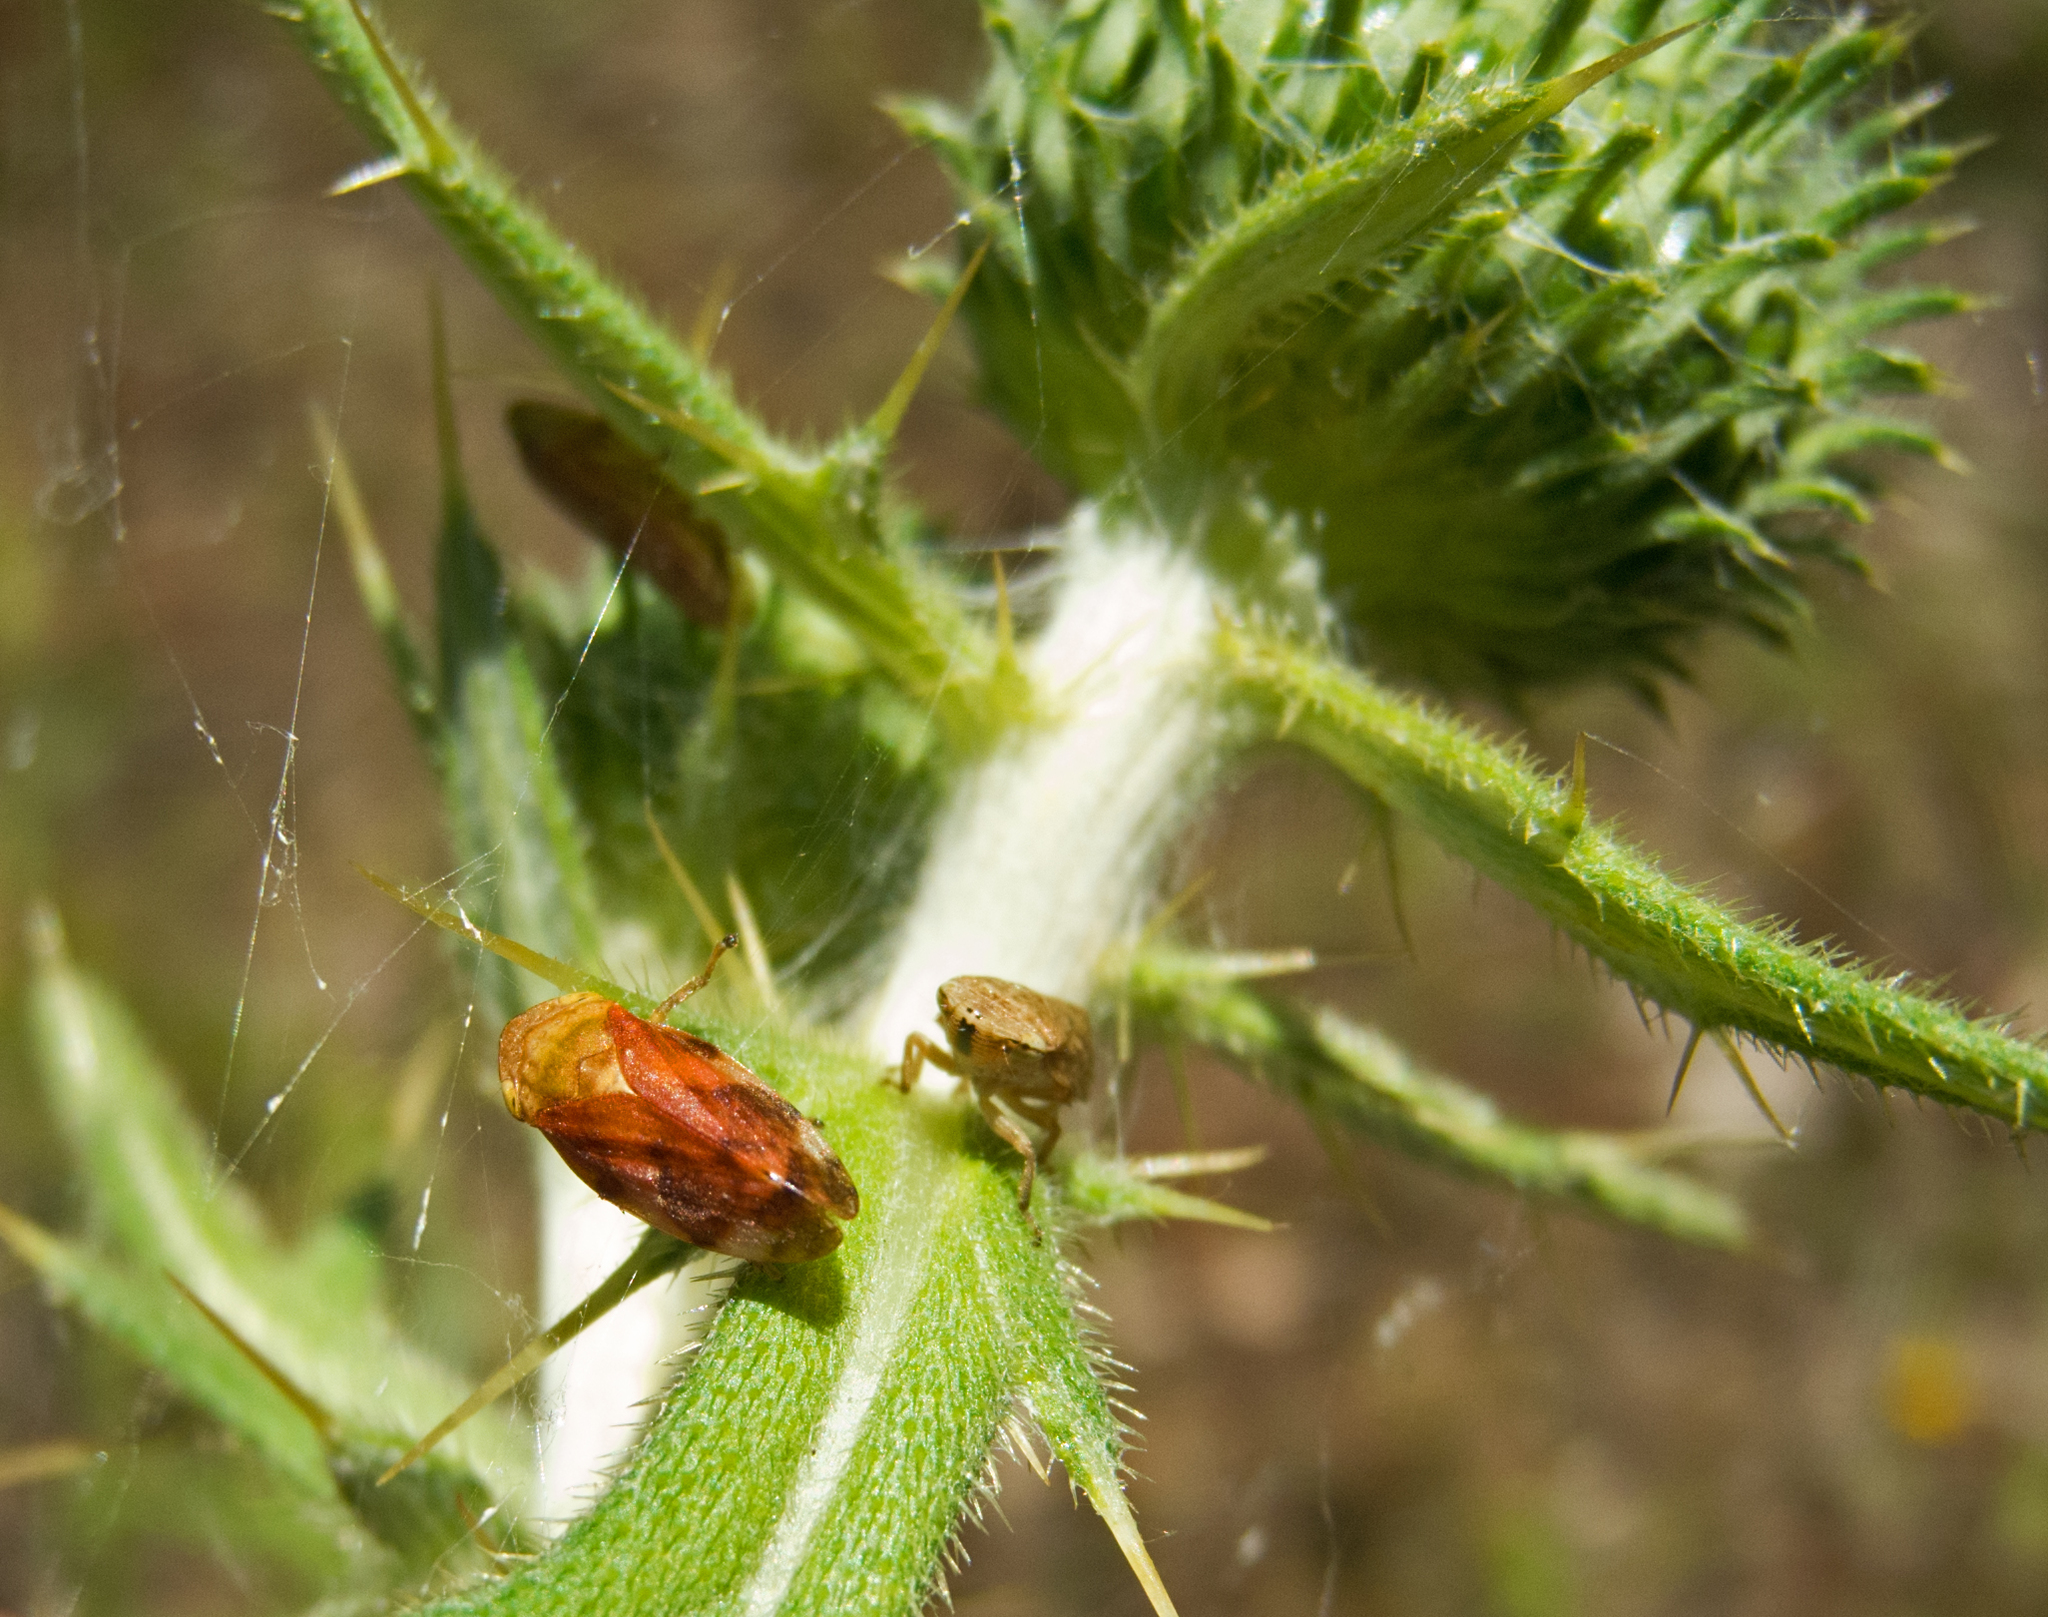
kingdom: Animalia
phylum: Arthropoda
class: Insecta
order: Hemiptera
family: Aphrophoridae
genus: Philaenus
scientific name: Philaenus spumarius
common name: Meadow spittlebug
